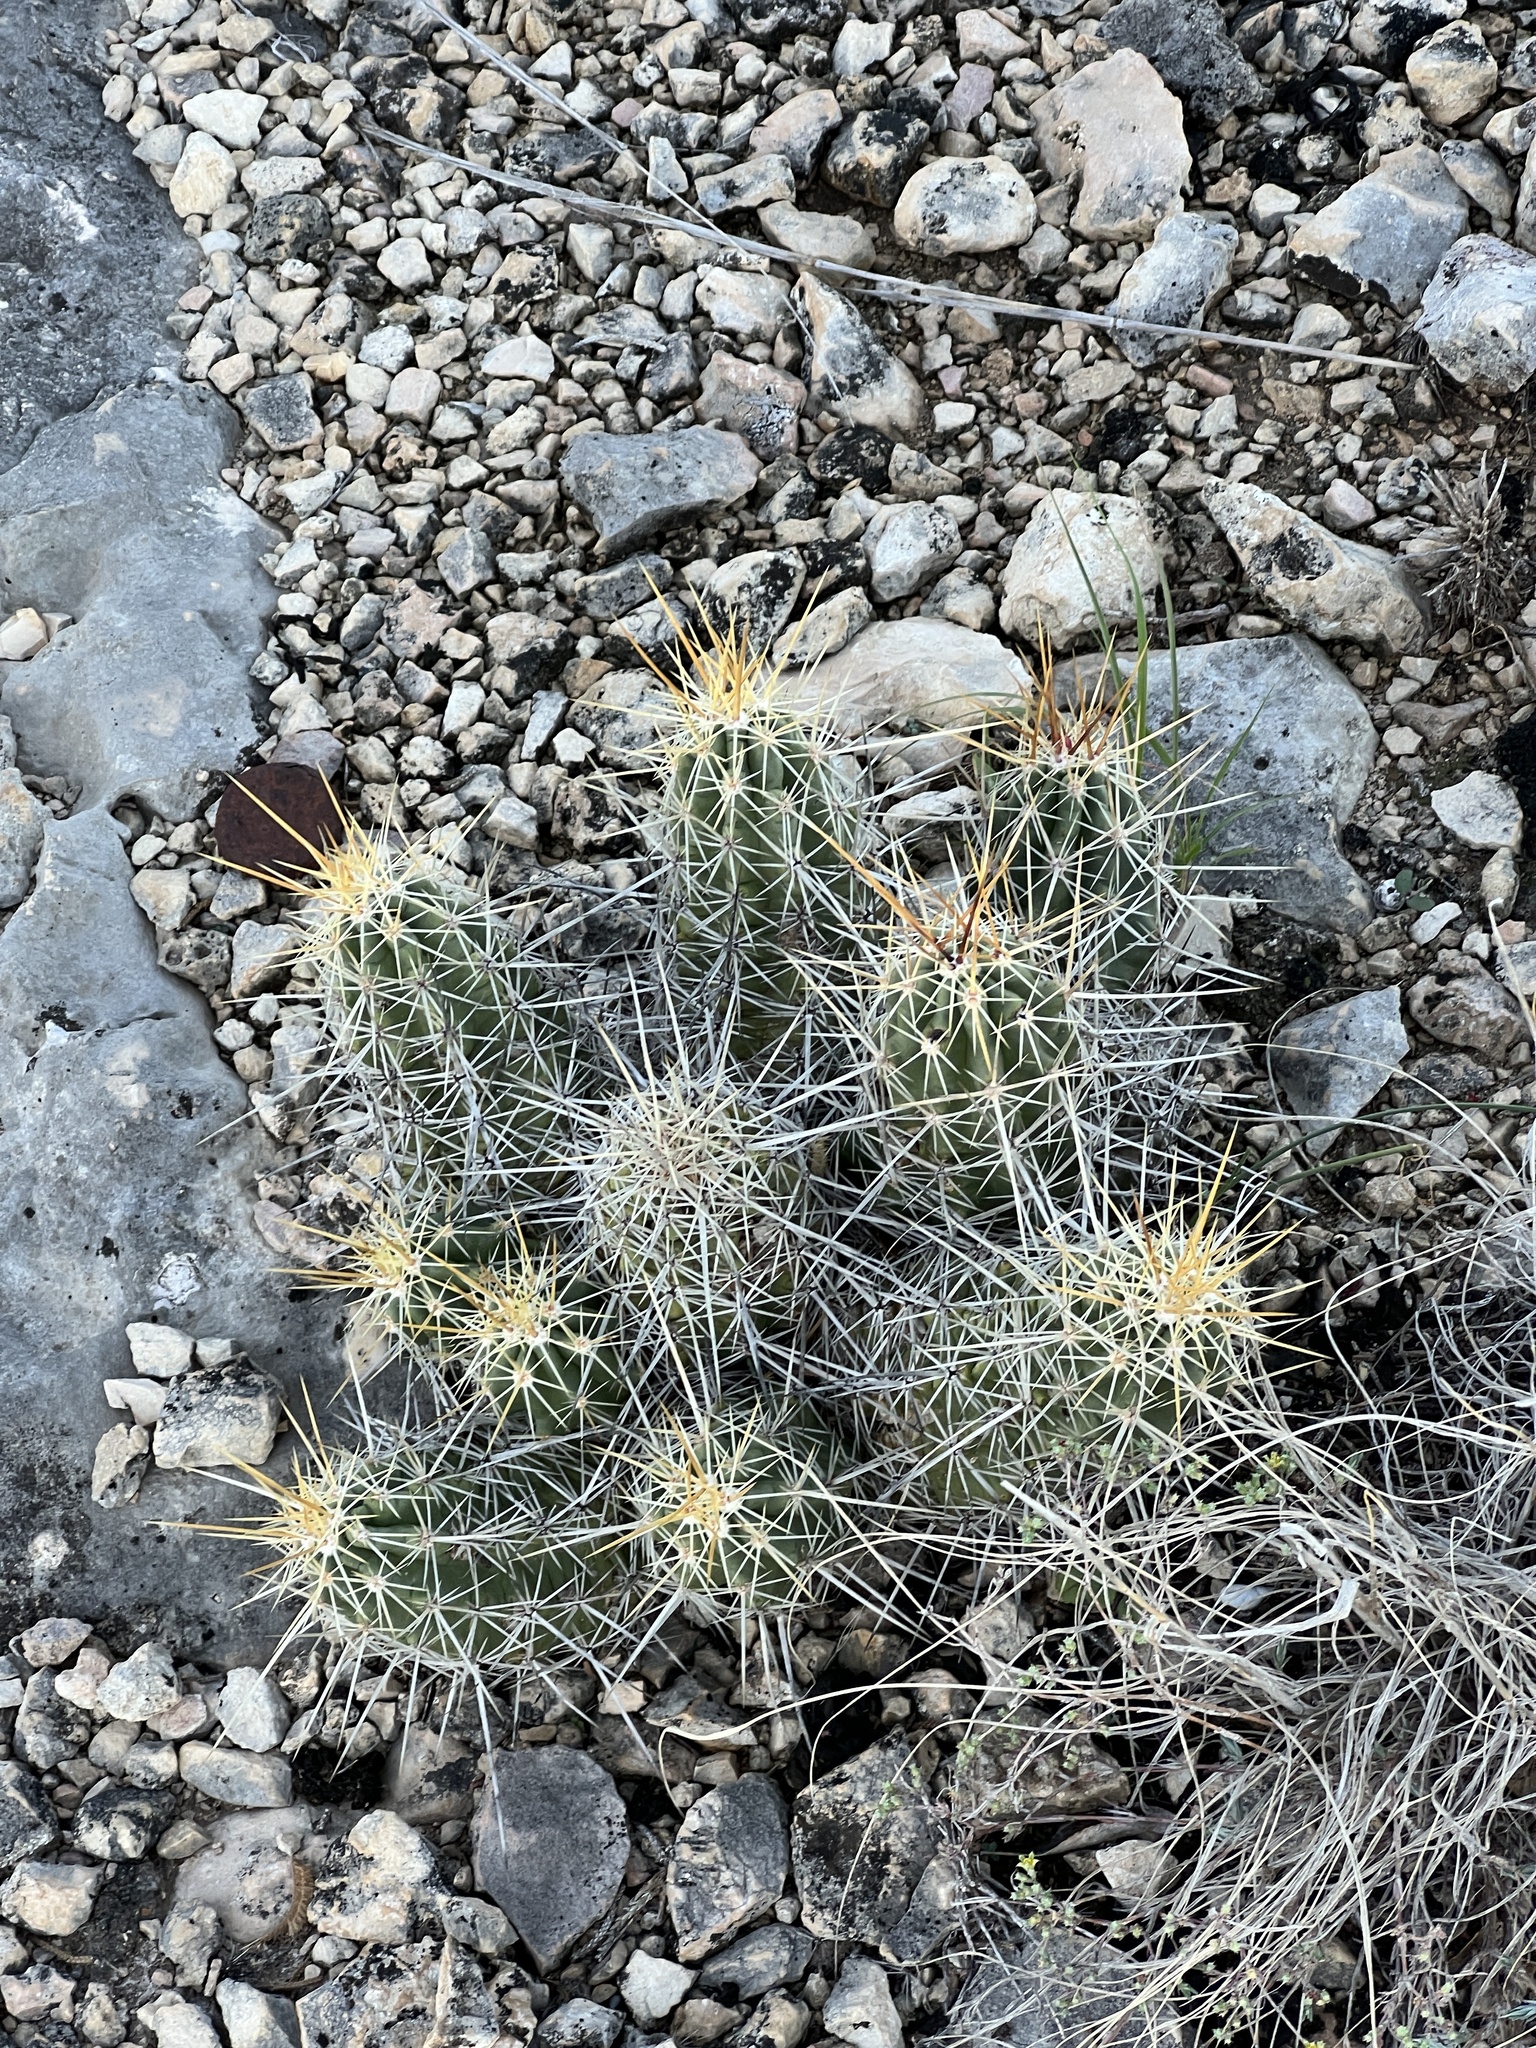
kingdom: Plantae
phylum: Tracheophyta
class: Magnoliopsida
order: Caryophyllales
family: Cactaceae
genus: Echinocereus
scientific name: Echinocereus enneacanthus
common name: Pitaya
